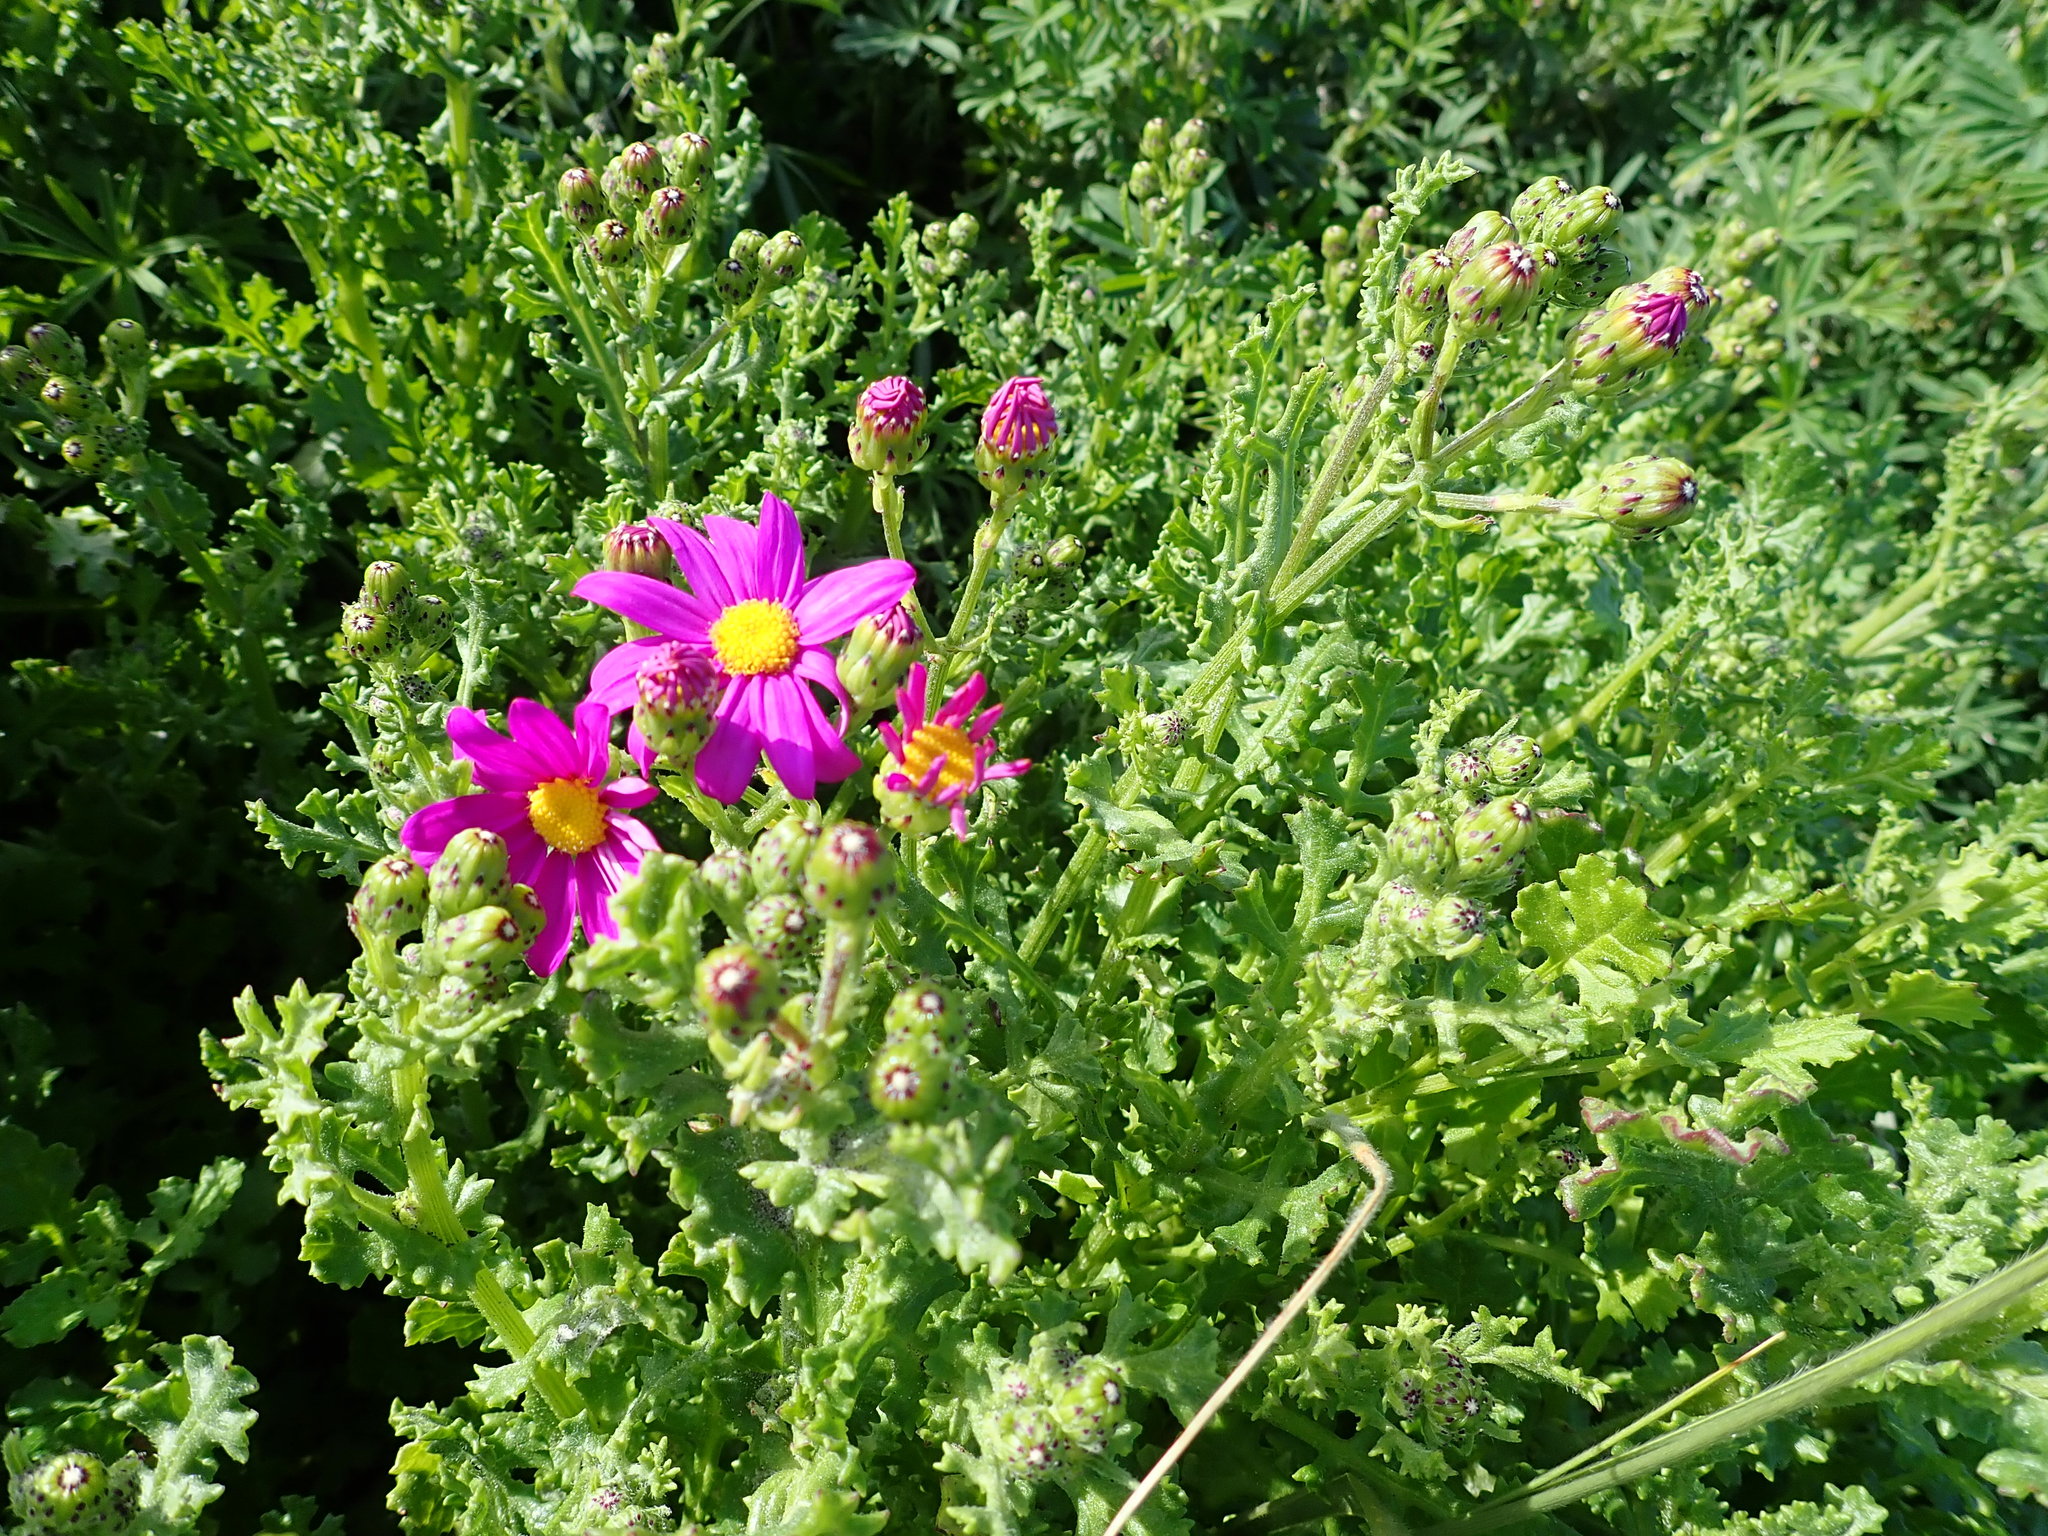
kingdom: Plantae
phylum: Tracheophyta
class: Magnoliopsida
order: Asterales
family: Asteraceae
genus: Senecio
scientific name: Senecio elegans
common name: Purple groundsel
